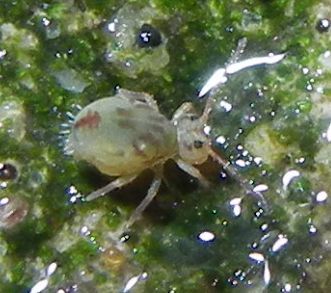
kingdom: Animalia
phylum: Arthropoda
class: Collembola
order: Symphypleona
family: Dicyrtomidae
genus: Dicyrtomina
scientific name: Dicyrtomina saundersi
